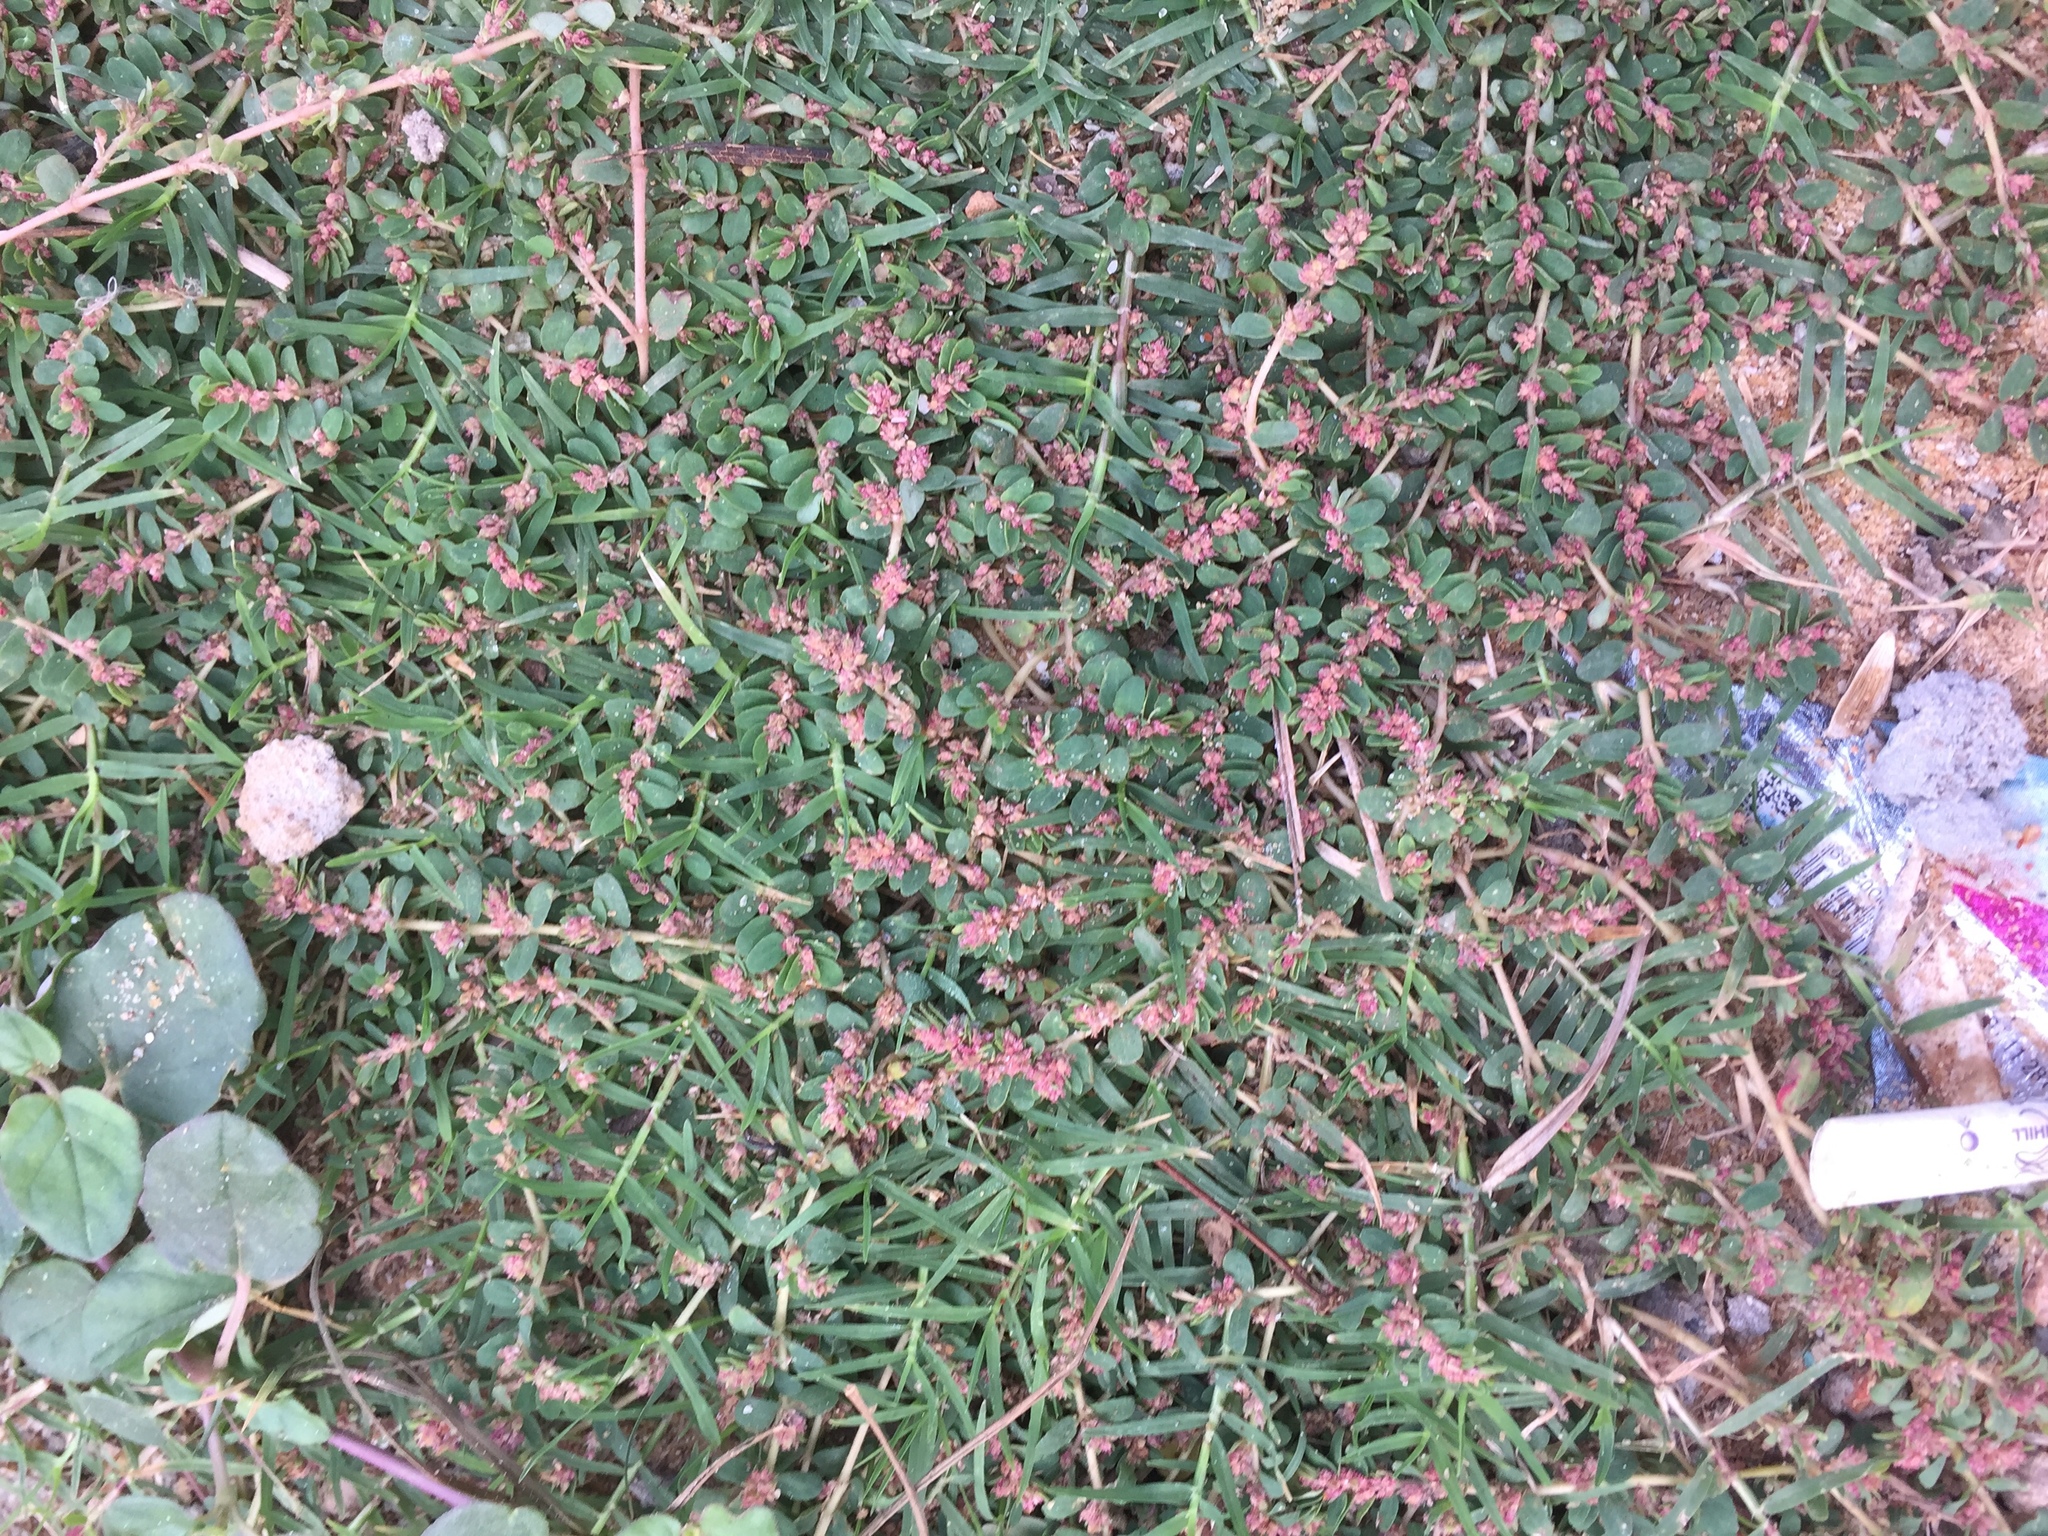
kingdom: Plantae
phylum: Tracheophyta
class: Magnoliopsida
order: Malpighiales
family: Euphorbiaceae
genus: Euphorbia
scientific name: Euphorbia thymifolia
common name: Gulf sandmat
